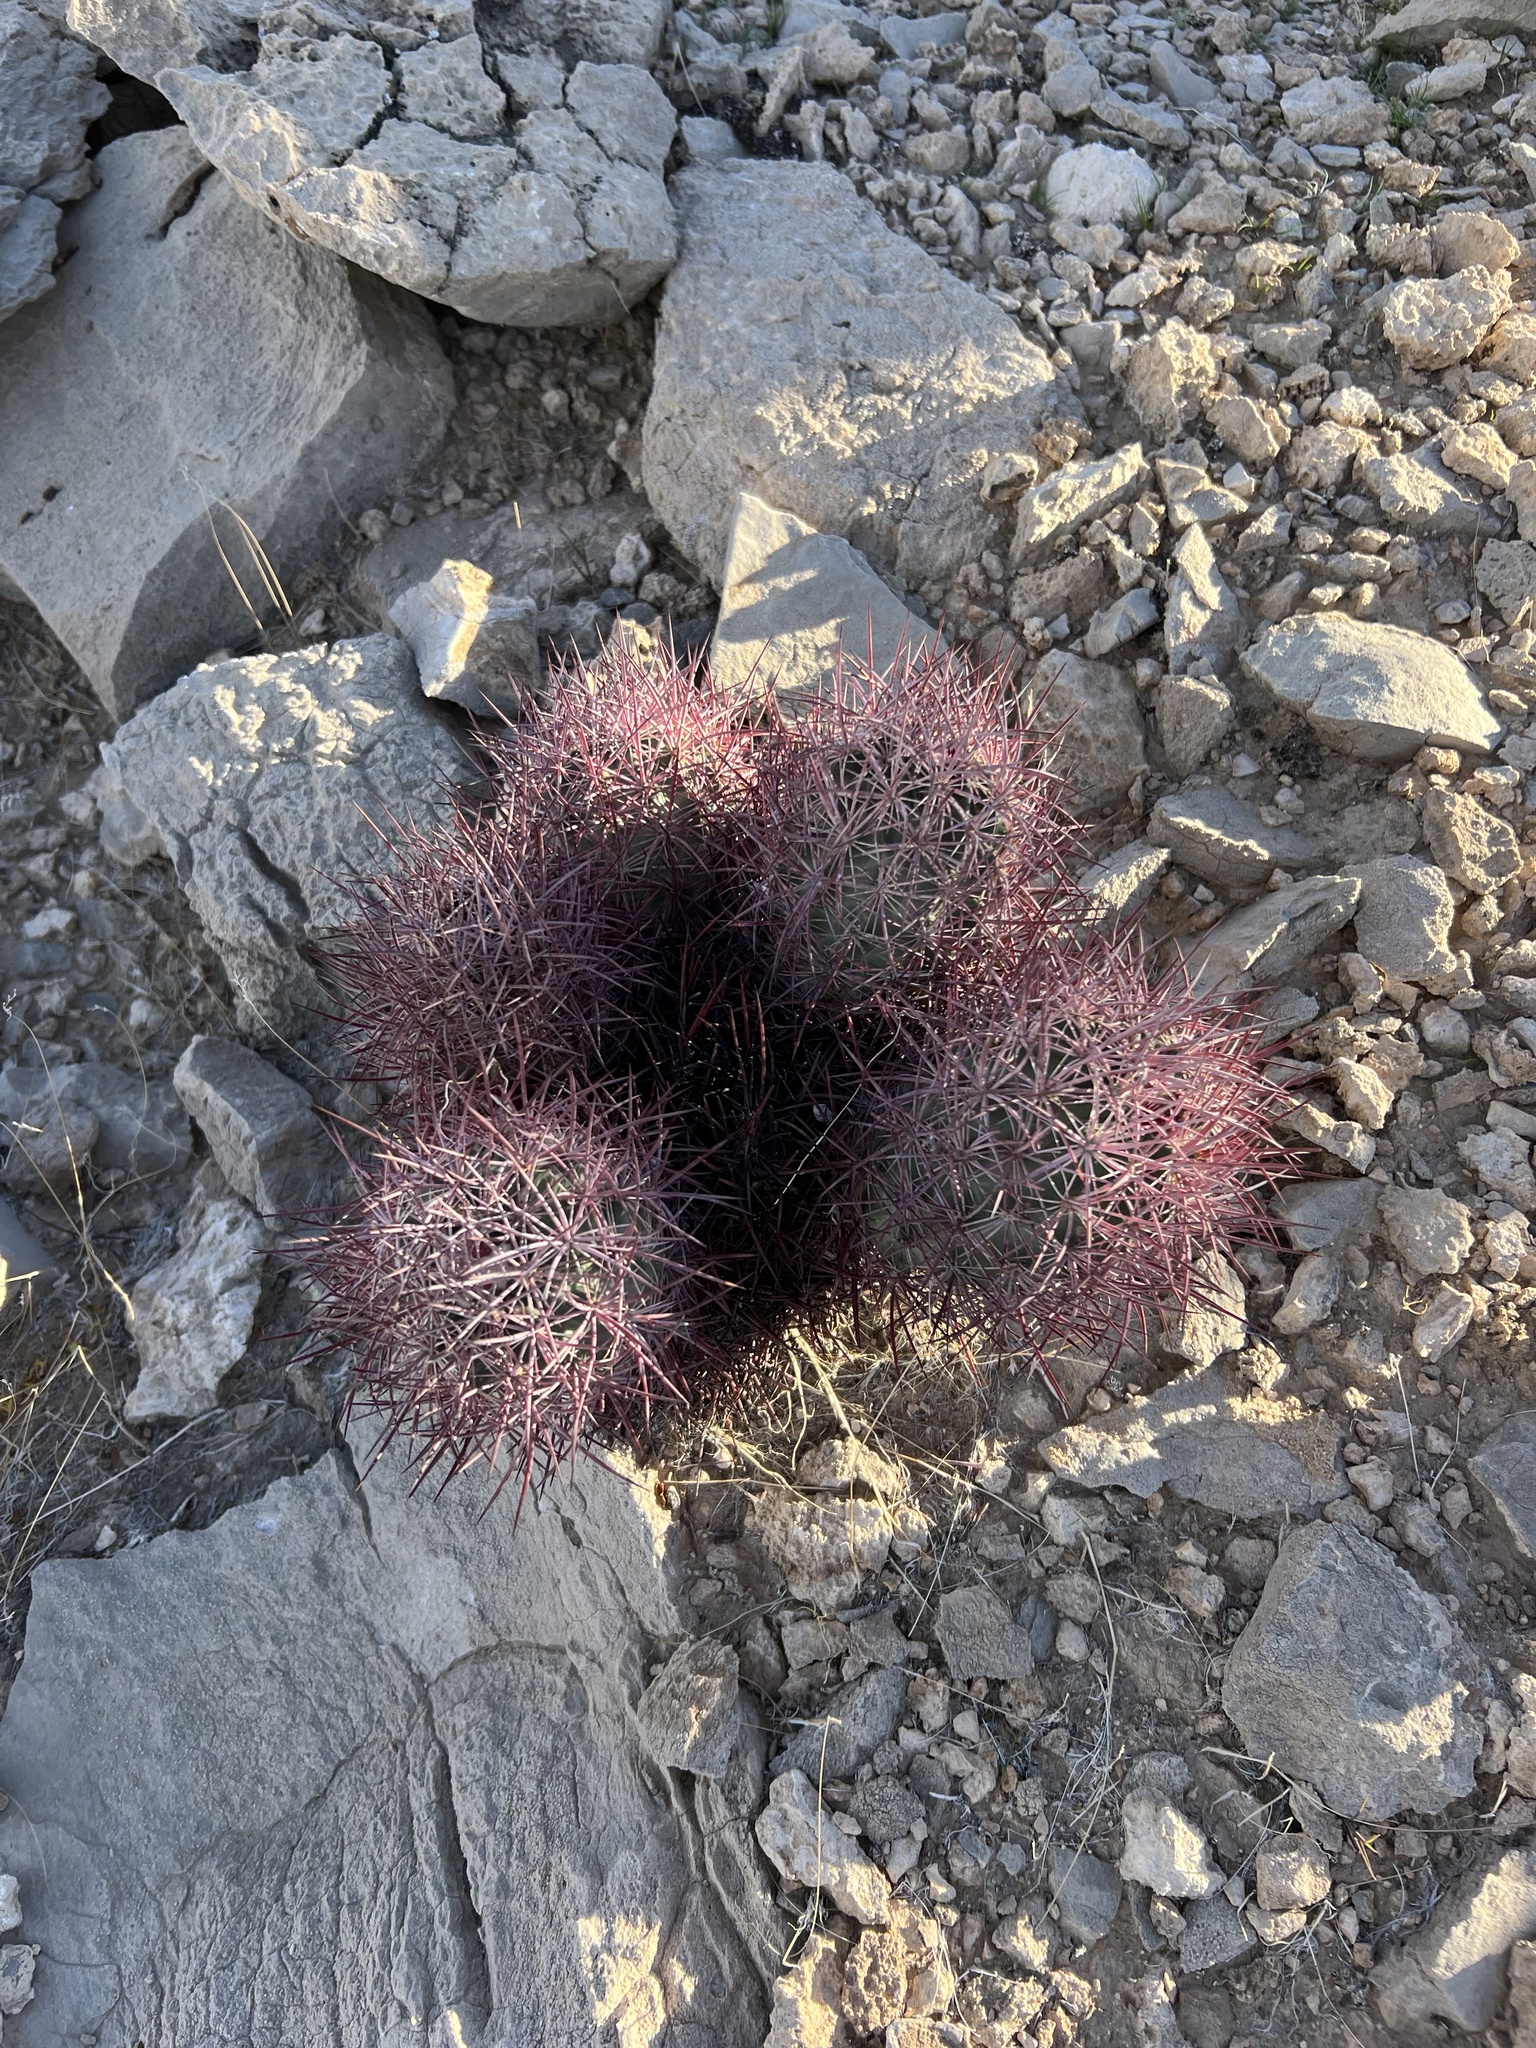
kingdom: Plantae
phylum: Tracheophyta
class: Magnoliopsida
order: Caryophyllales
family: Cactaceae
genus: Sclerocactus
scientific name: Sclerocactus johnsonii
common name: Eight-spine fishhook cactus
